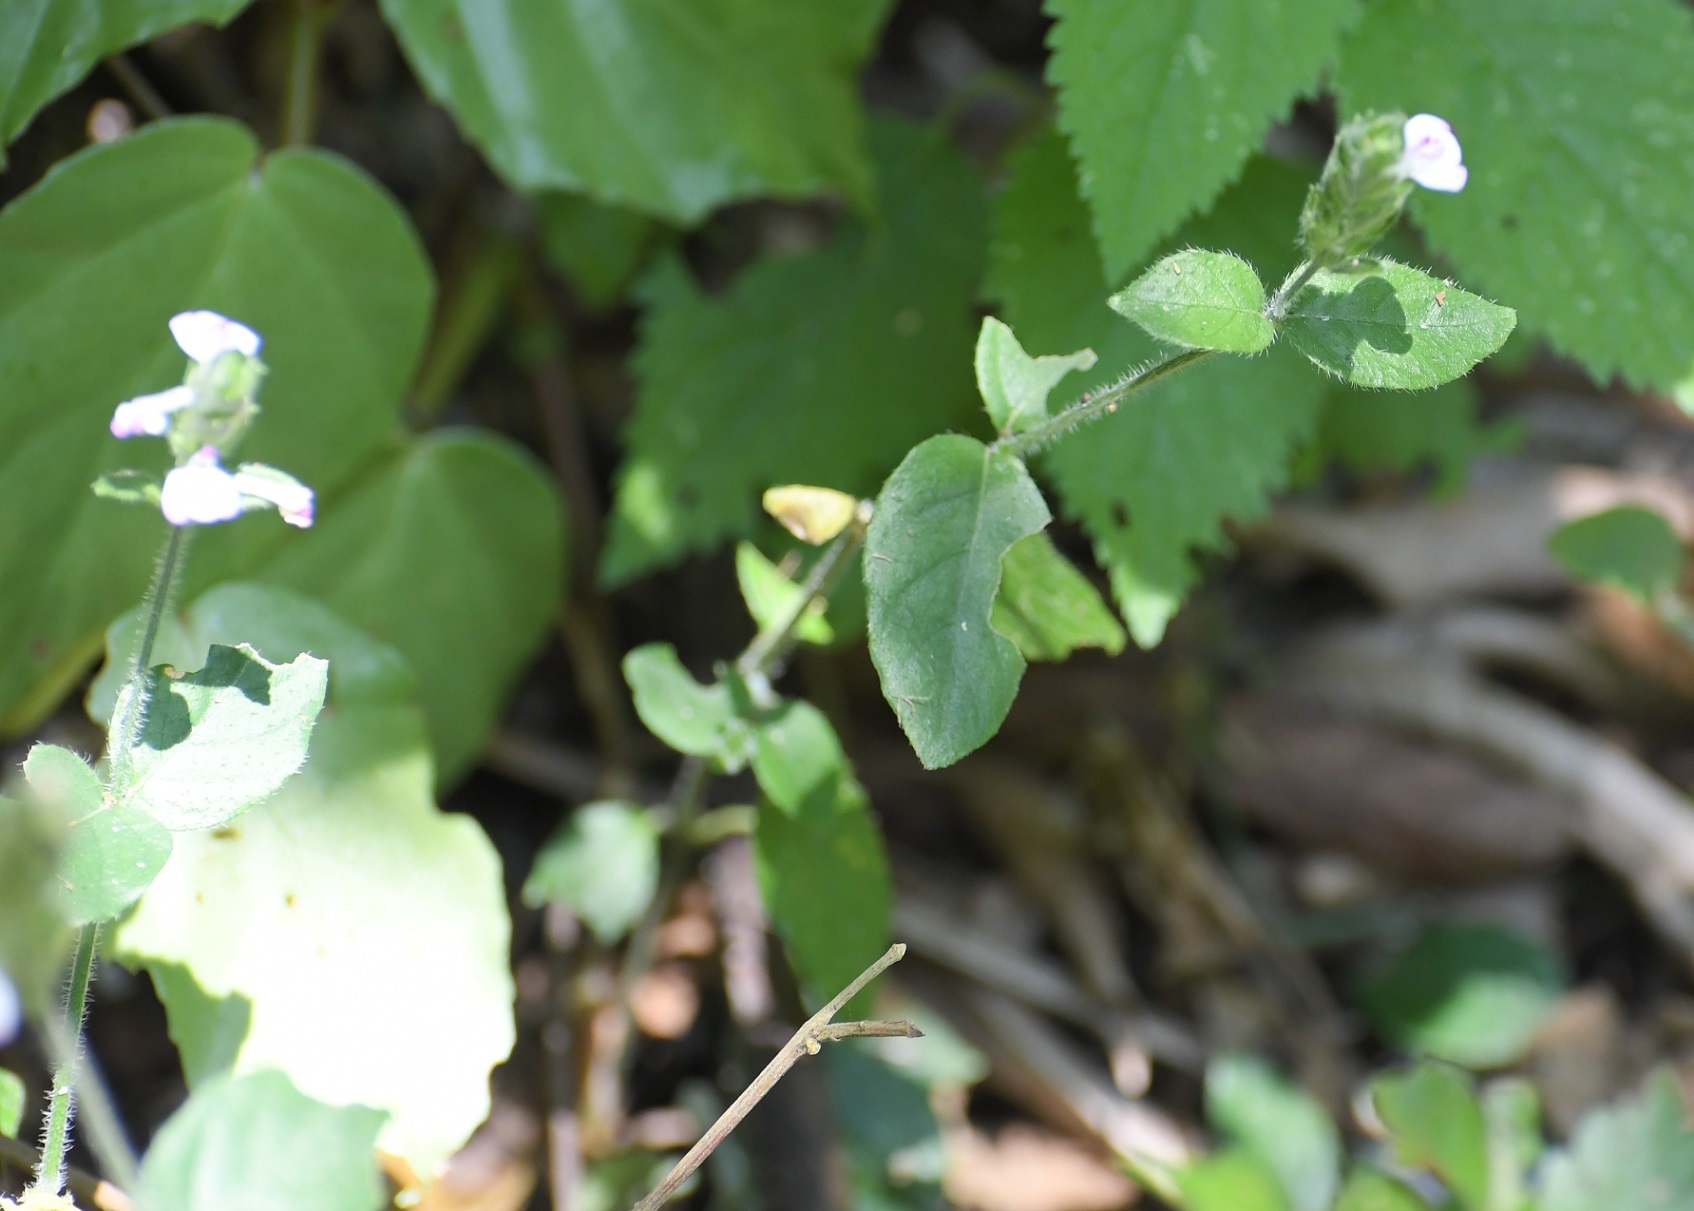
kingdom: Plantae
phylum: Tracheophyta
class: Magnoliopsida
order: Lamiales
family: Acanthaceae
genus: Dianthera
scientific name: Dianthera candelariae
